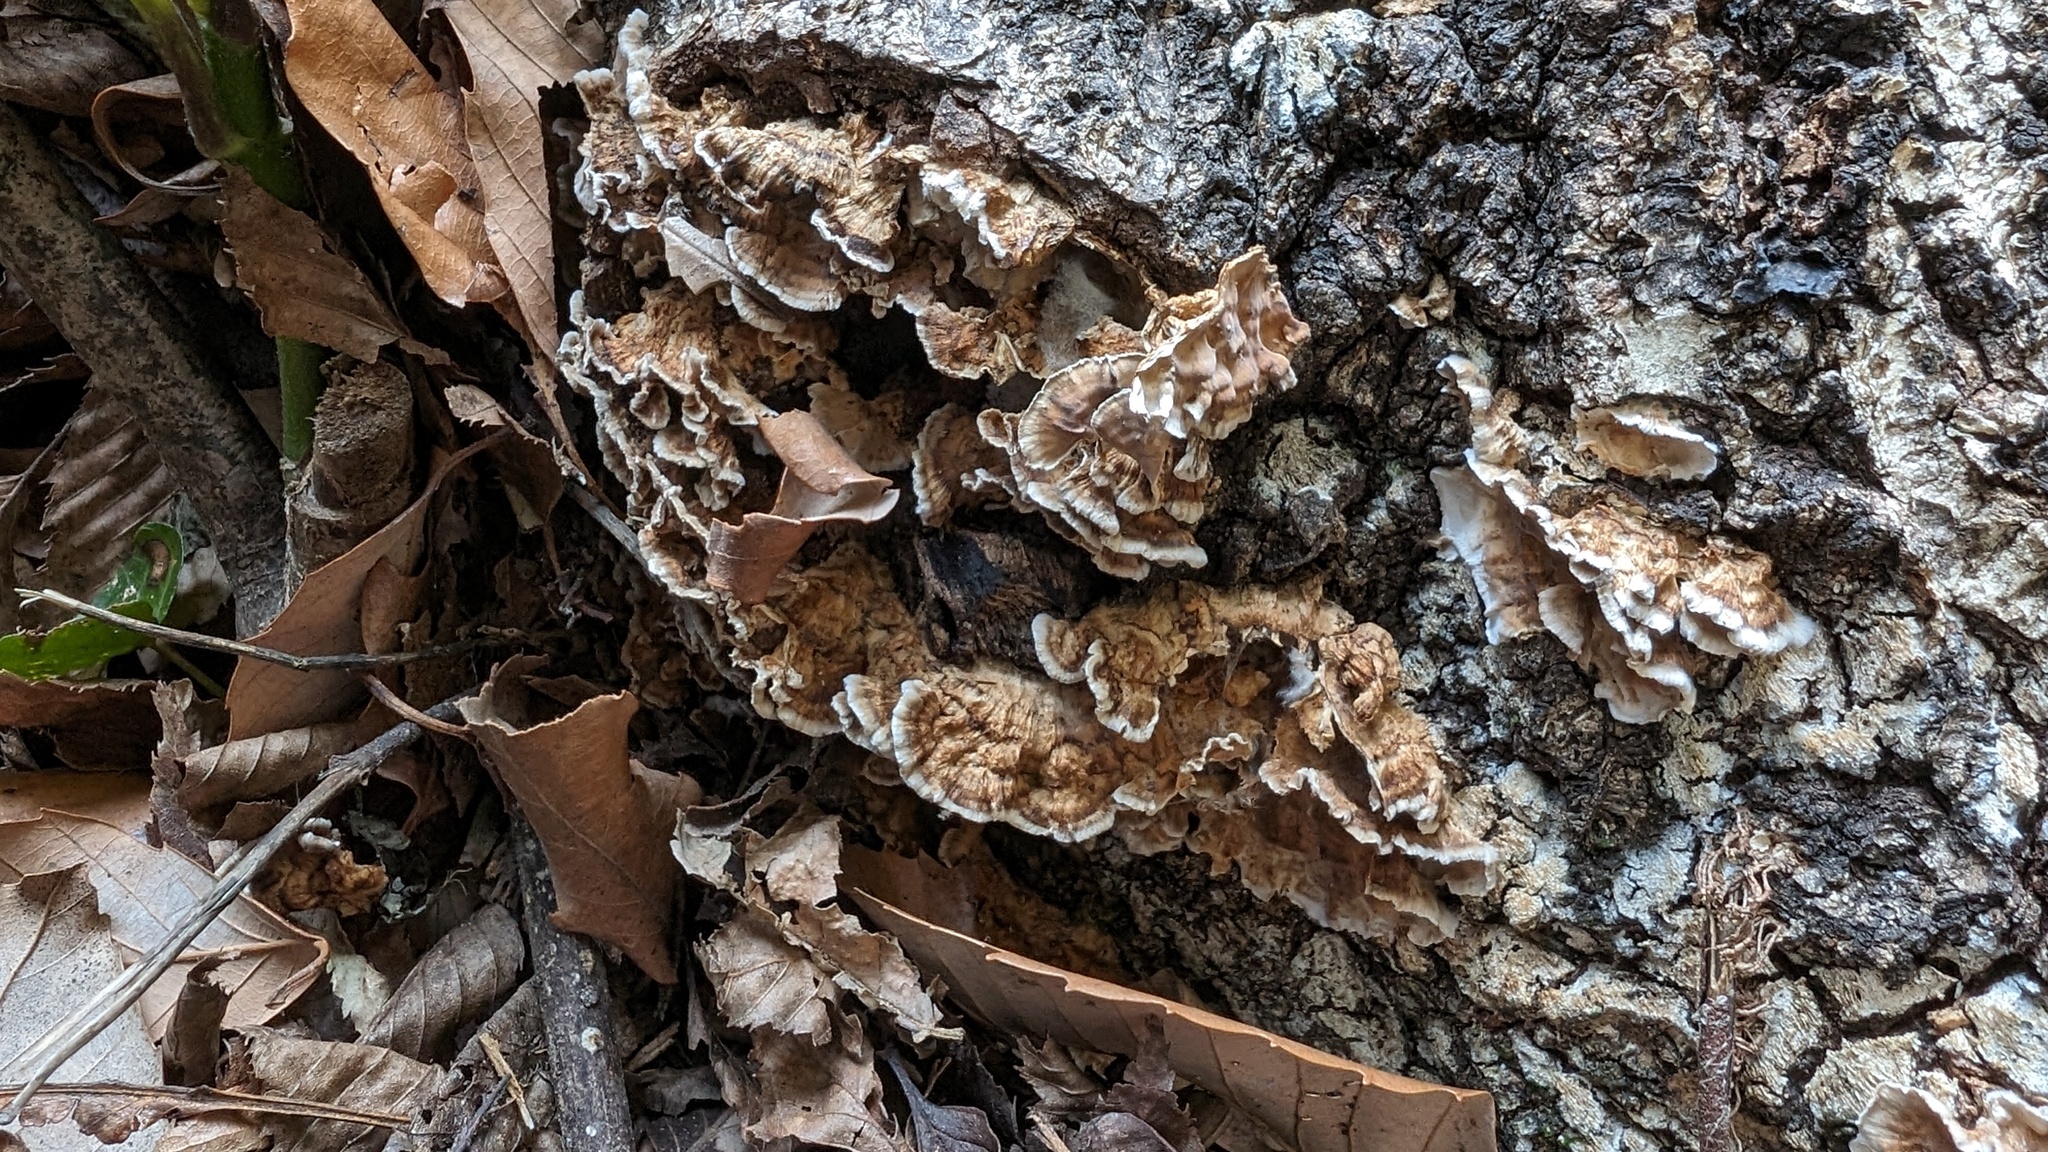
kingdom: Fungi
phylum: Basidiomycota
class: Agaricomycetes
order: Russulales
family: Stereaceae
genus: Stereum
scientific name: Stereum gausapatum
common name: Bleeding oak crust
